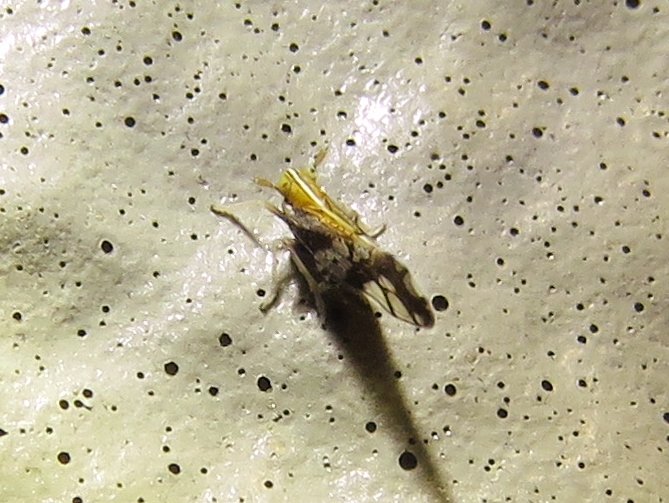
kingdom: Animalia
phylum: Arthropoda
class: Insecta
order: Hemiptera
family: Delphacidae
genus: Liburniella
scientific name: Liburniella ornata
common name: Ornate planthopper
